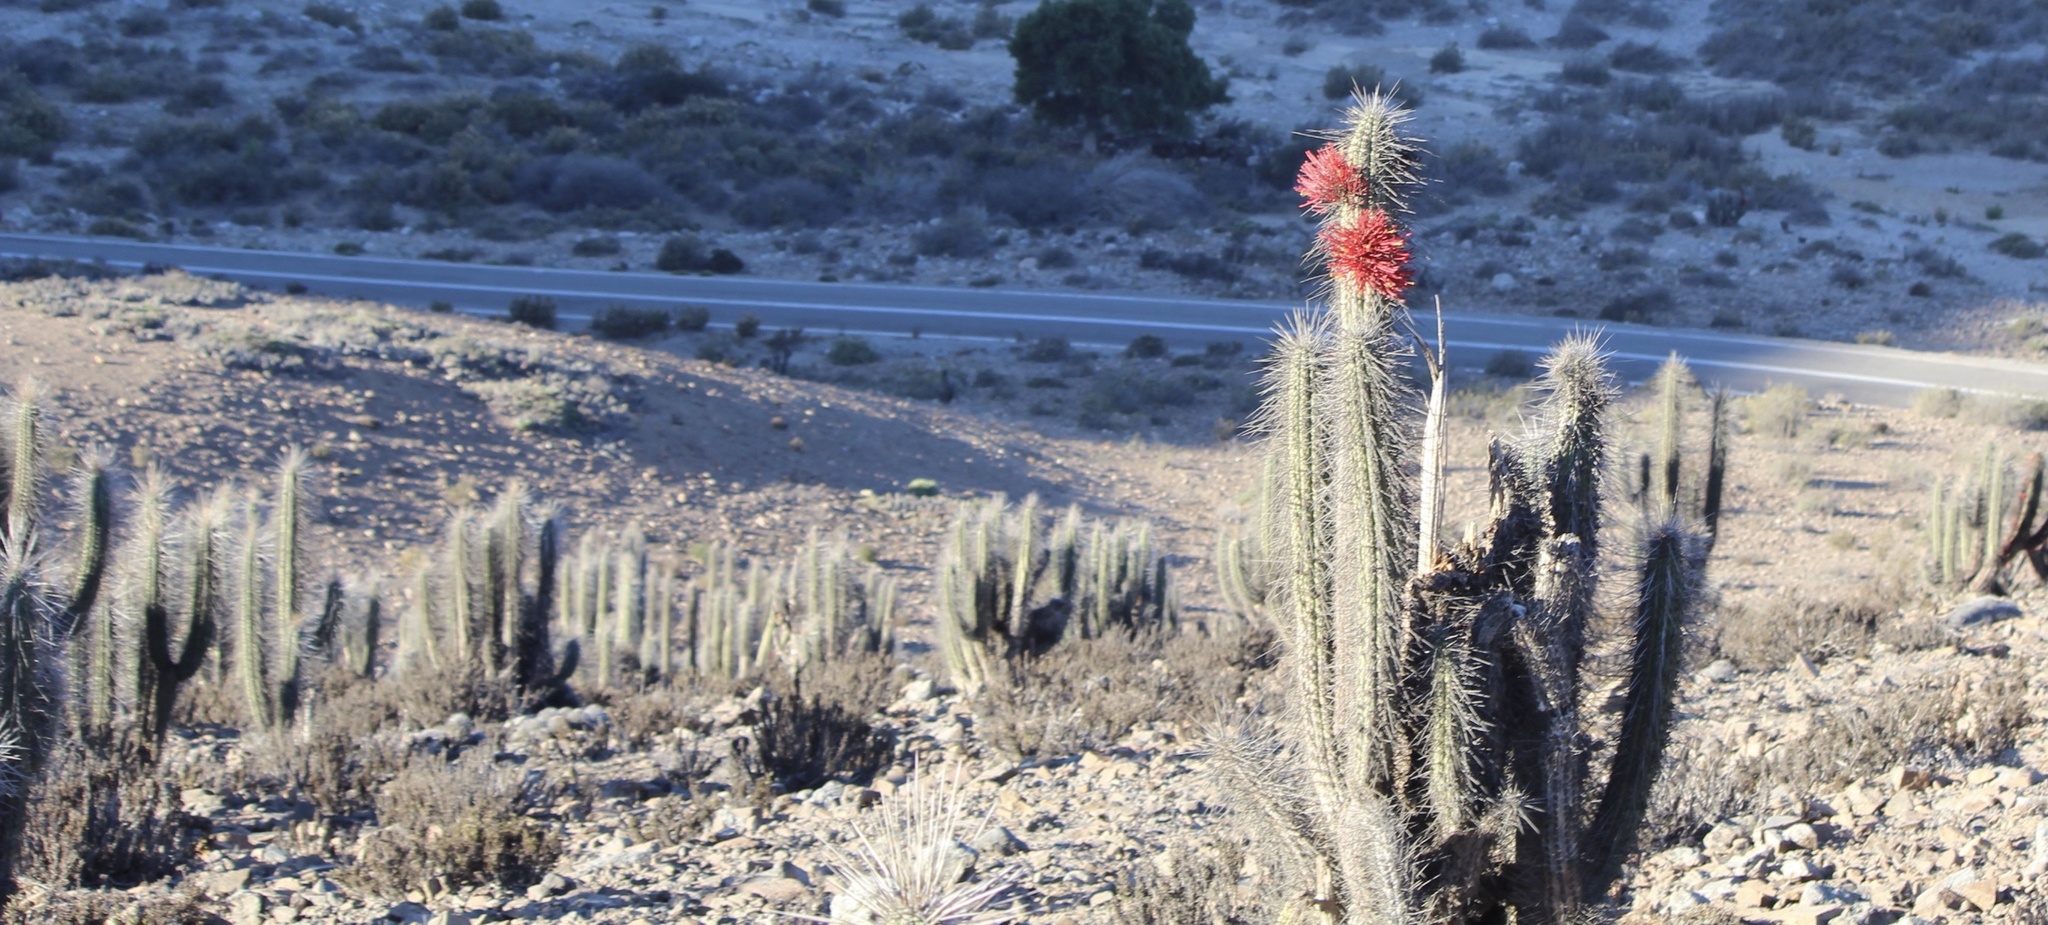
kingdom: Plantae
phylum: Tracheophyta
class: Magnoliopsida
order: Caryophyllales
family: Cactaceae
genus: Eulychnia
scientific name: Eulychnia acida
